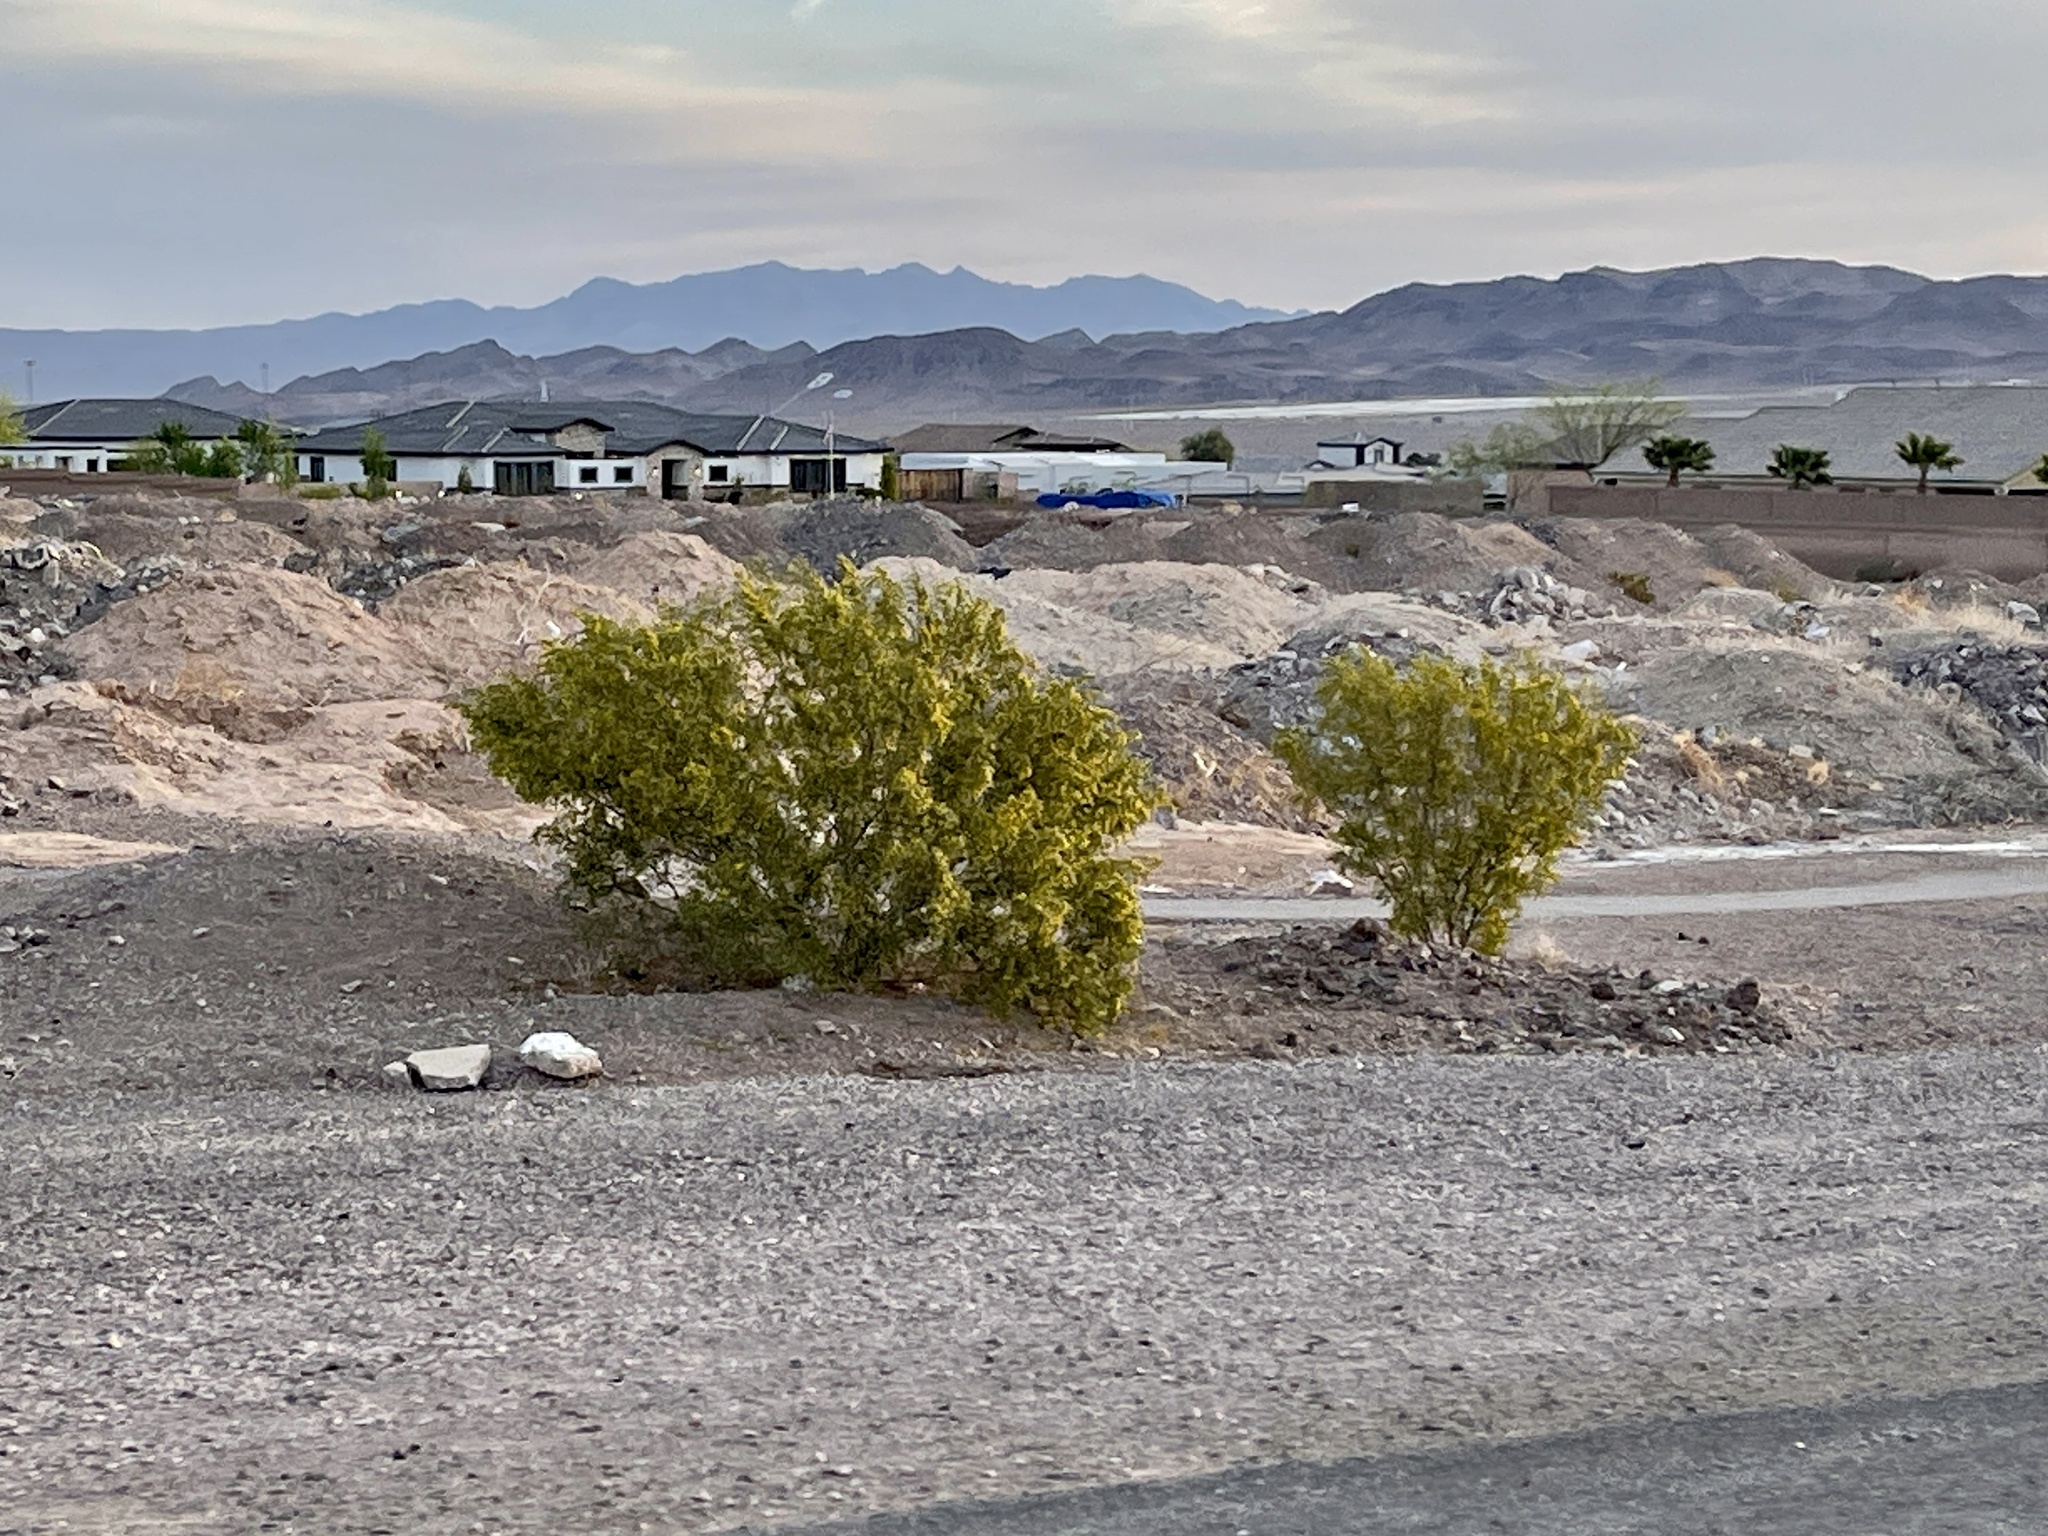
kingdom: Plantae
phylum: Tracheophyta
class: Magnoliopsida
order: Zygophyllales
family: Zygophyllaceae
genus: Larrea
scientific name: Larrea tridentata
